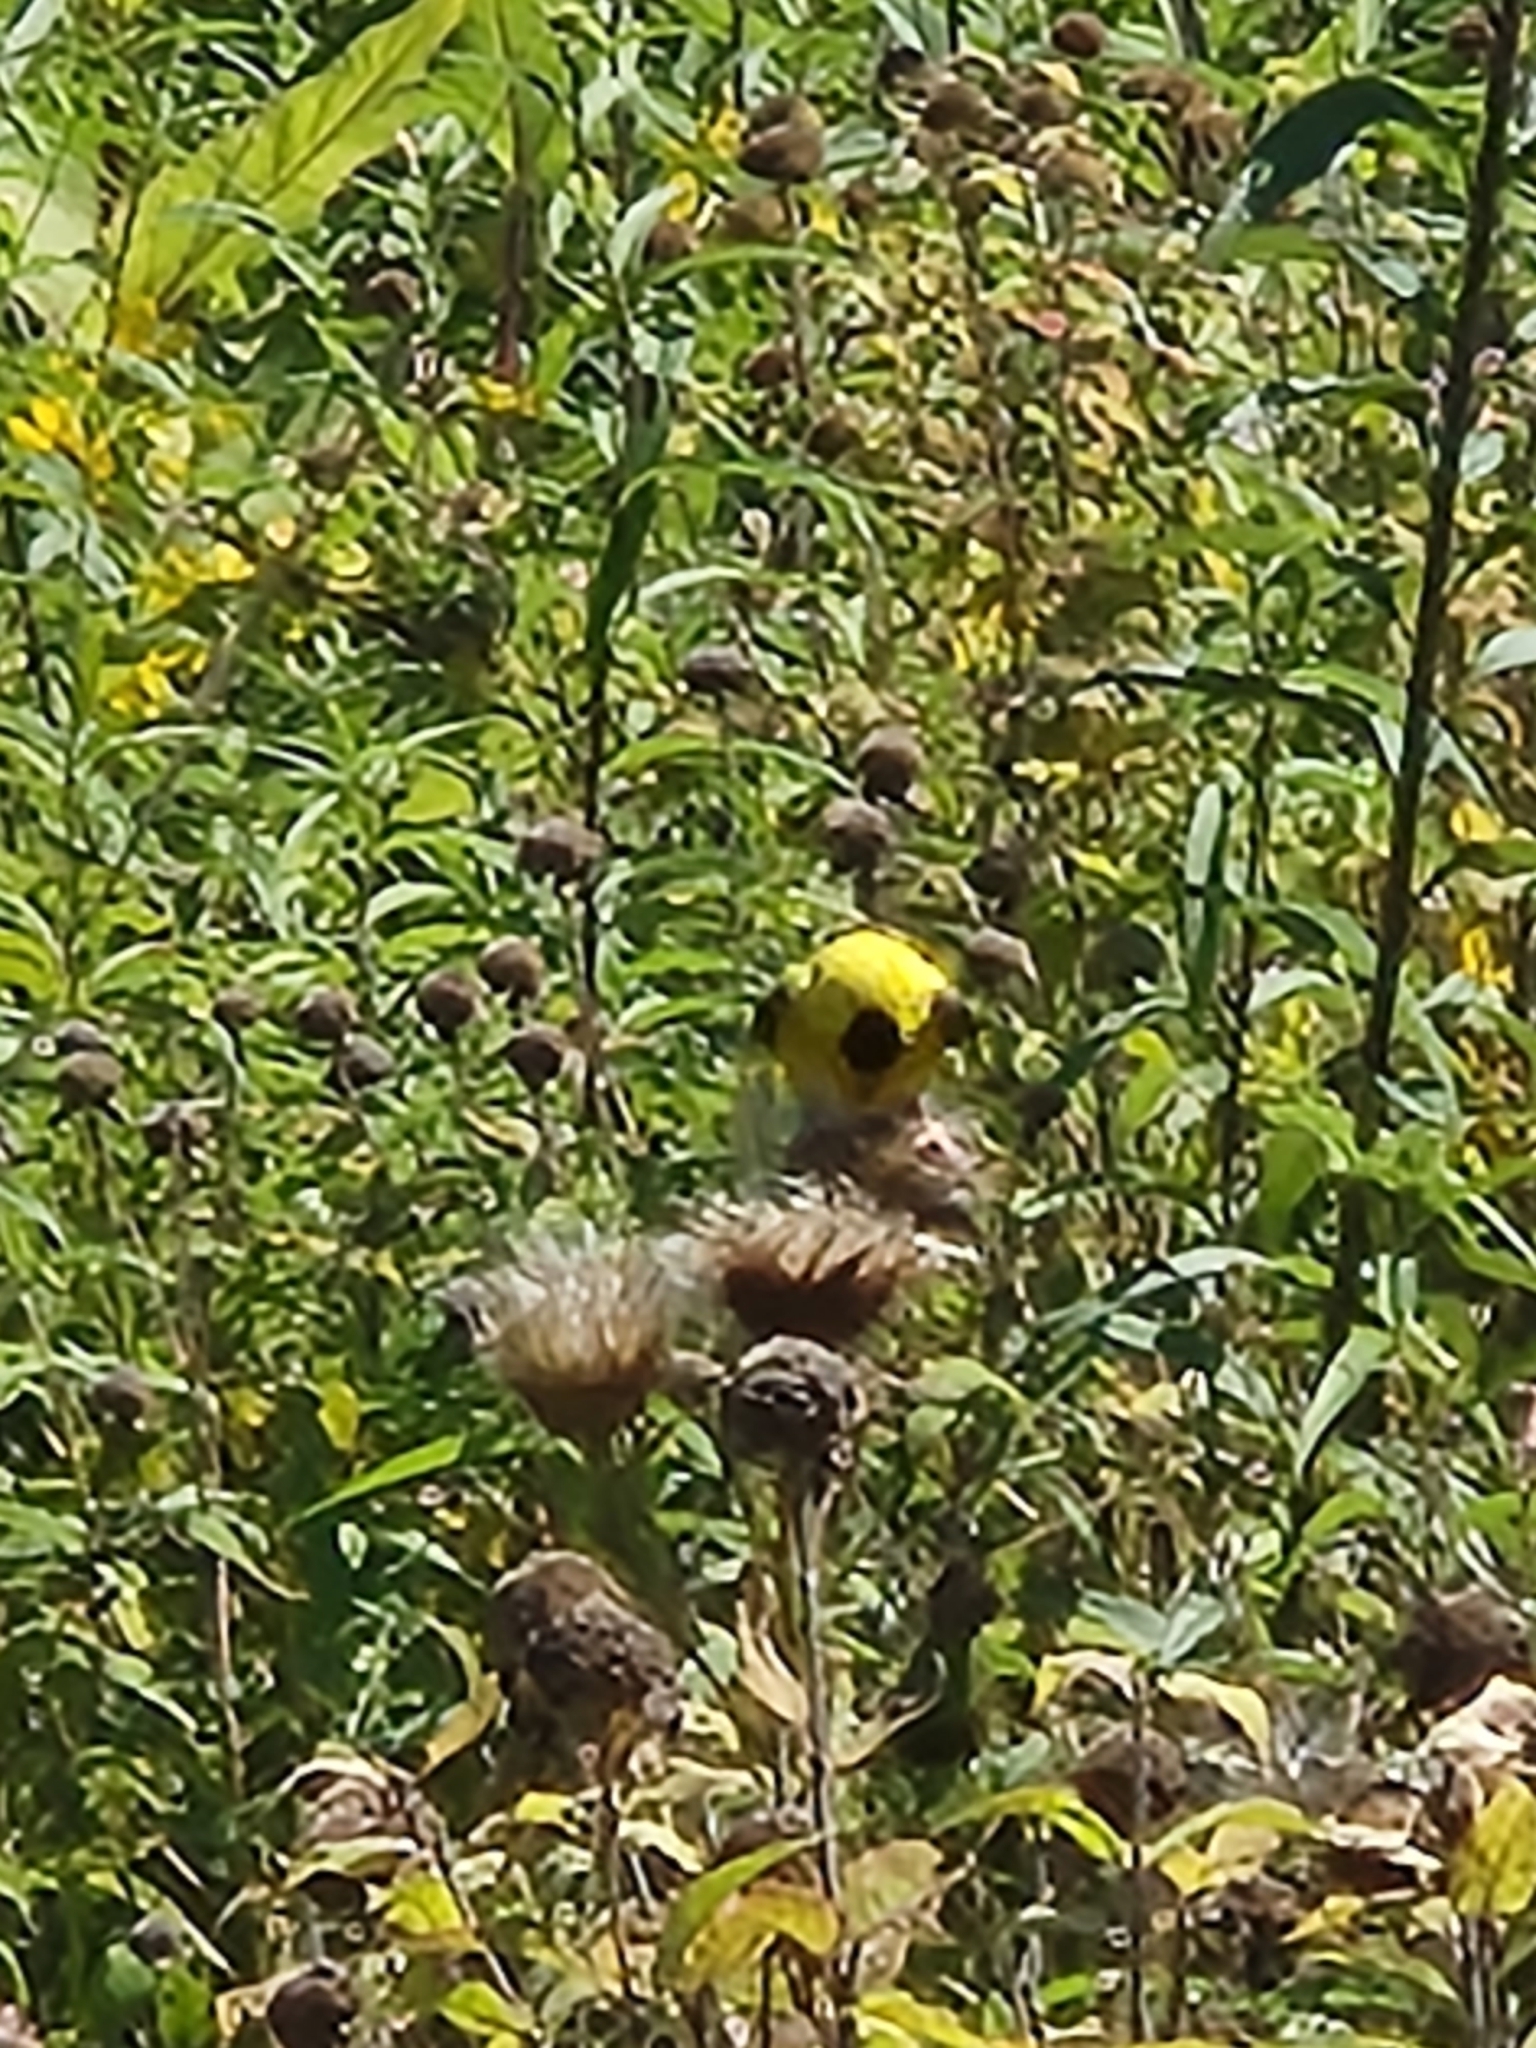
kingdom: Animalia
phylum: Chordata
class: Aves
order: Passeriformes
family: Fringillidae
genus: Spinus
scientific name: Spinus tristis
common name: American goldfinch
